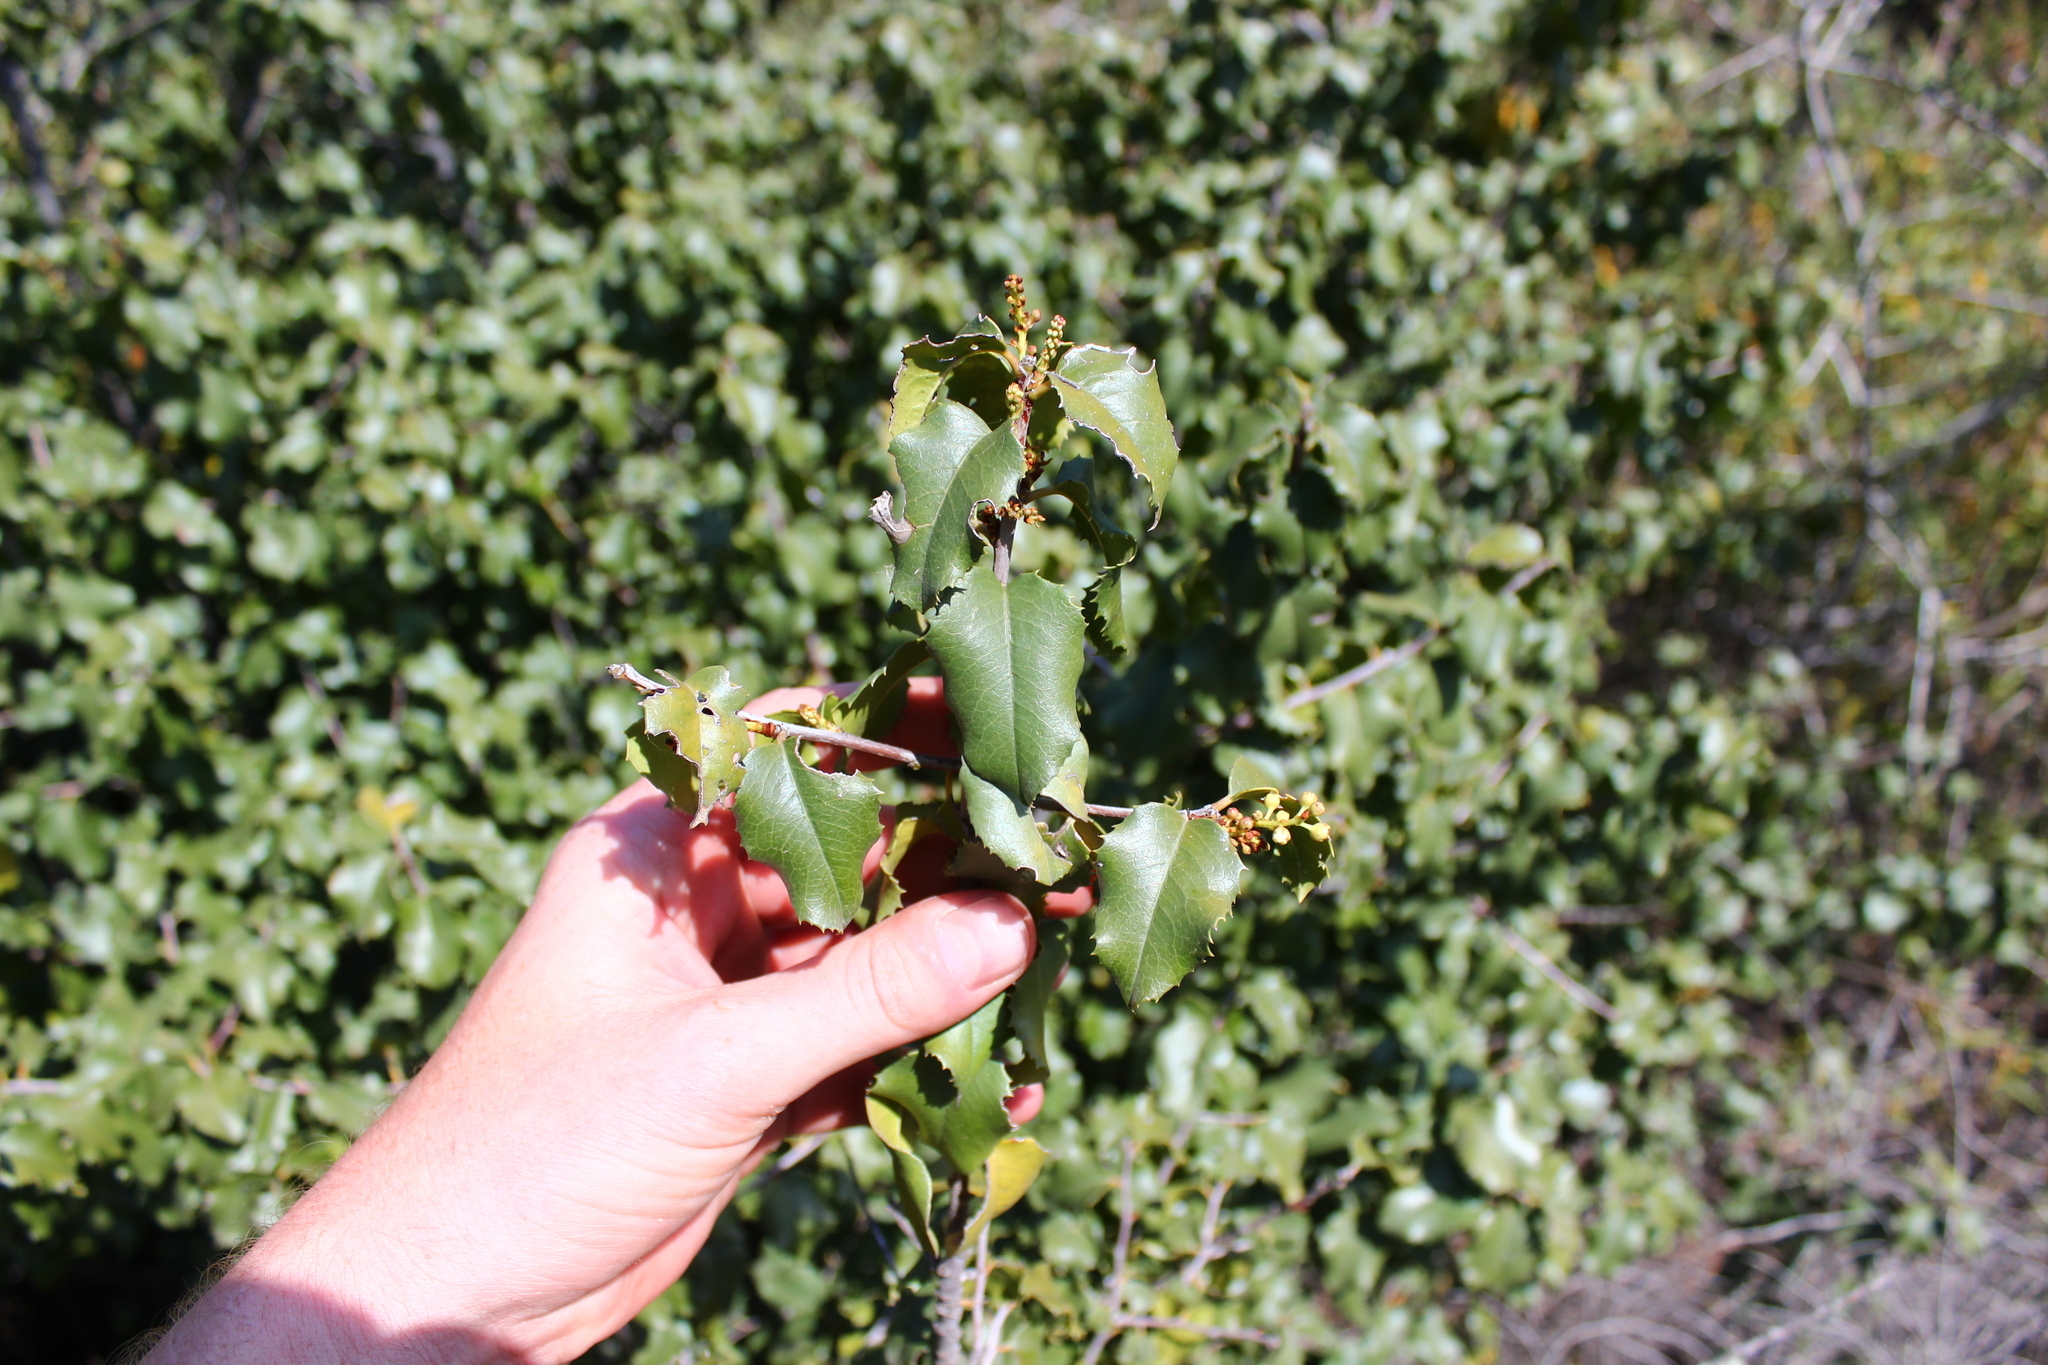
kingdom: Plantae
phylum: Tracheophyta
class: Magnoliopsida
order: Rosales
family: Rosaceae
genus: Prunus
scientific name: Prunus ilicifolia
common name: Hollyleaf cherry
